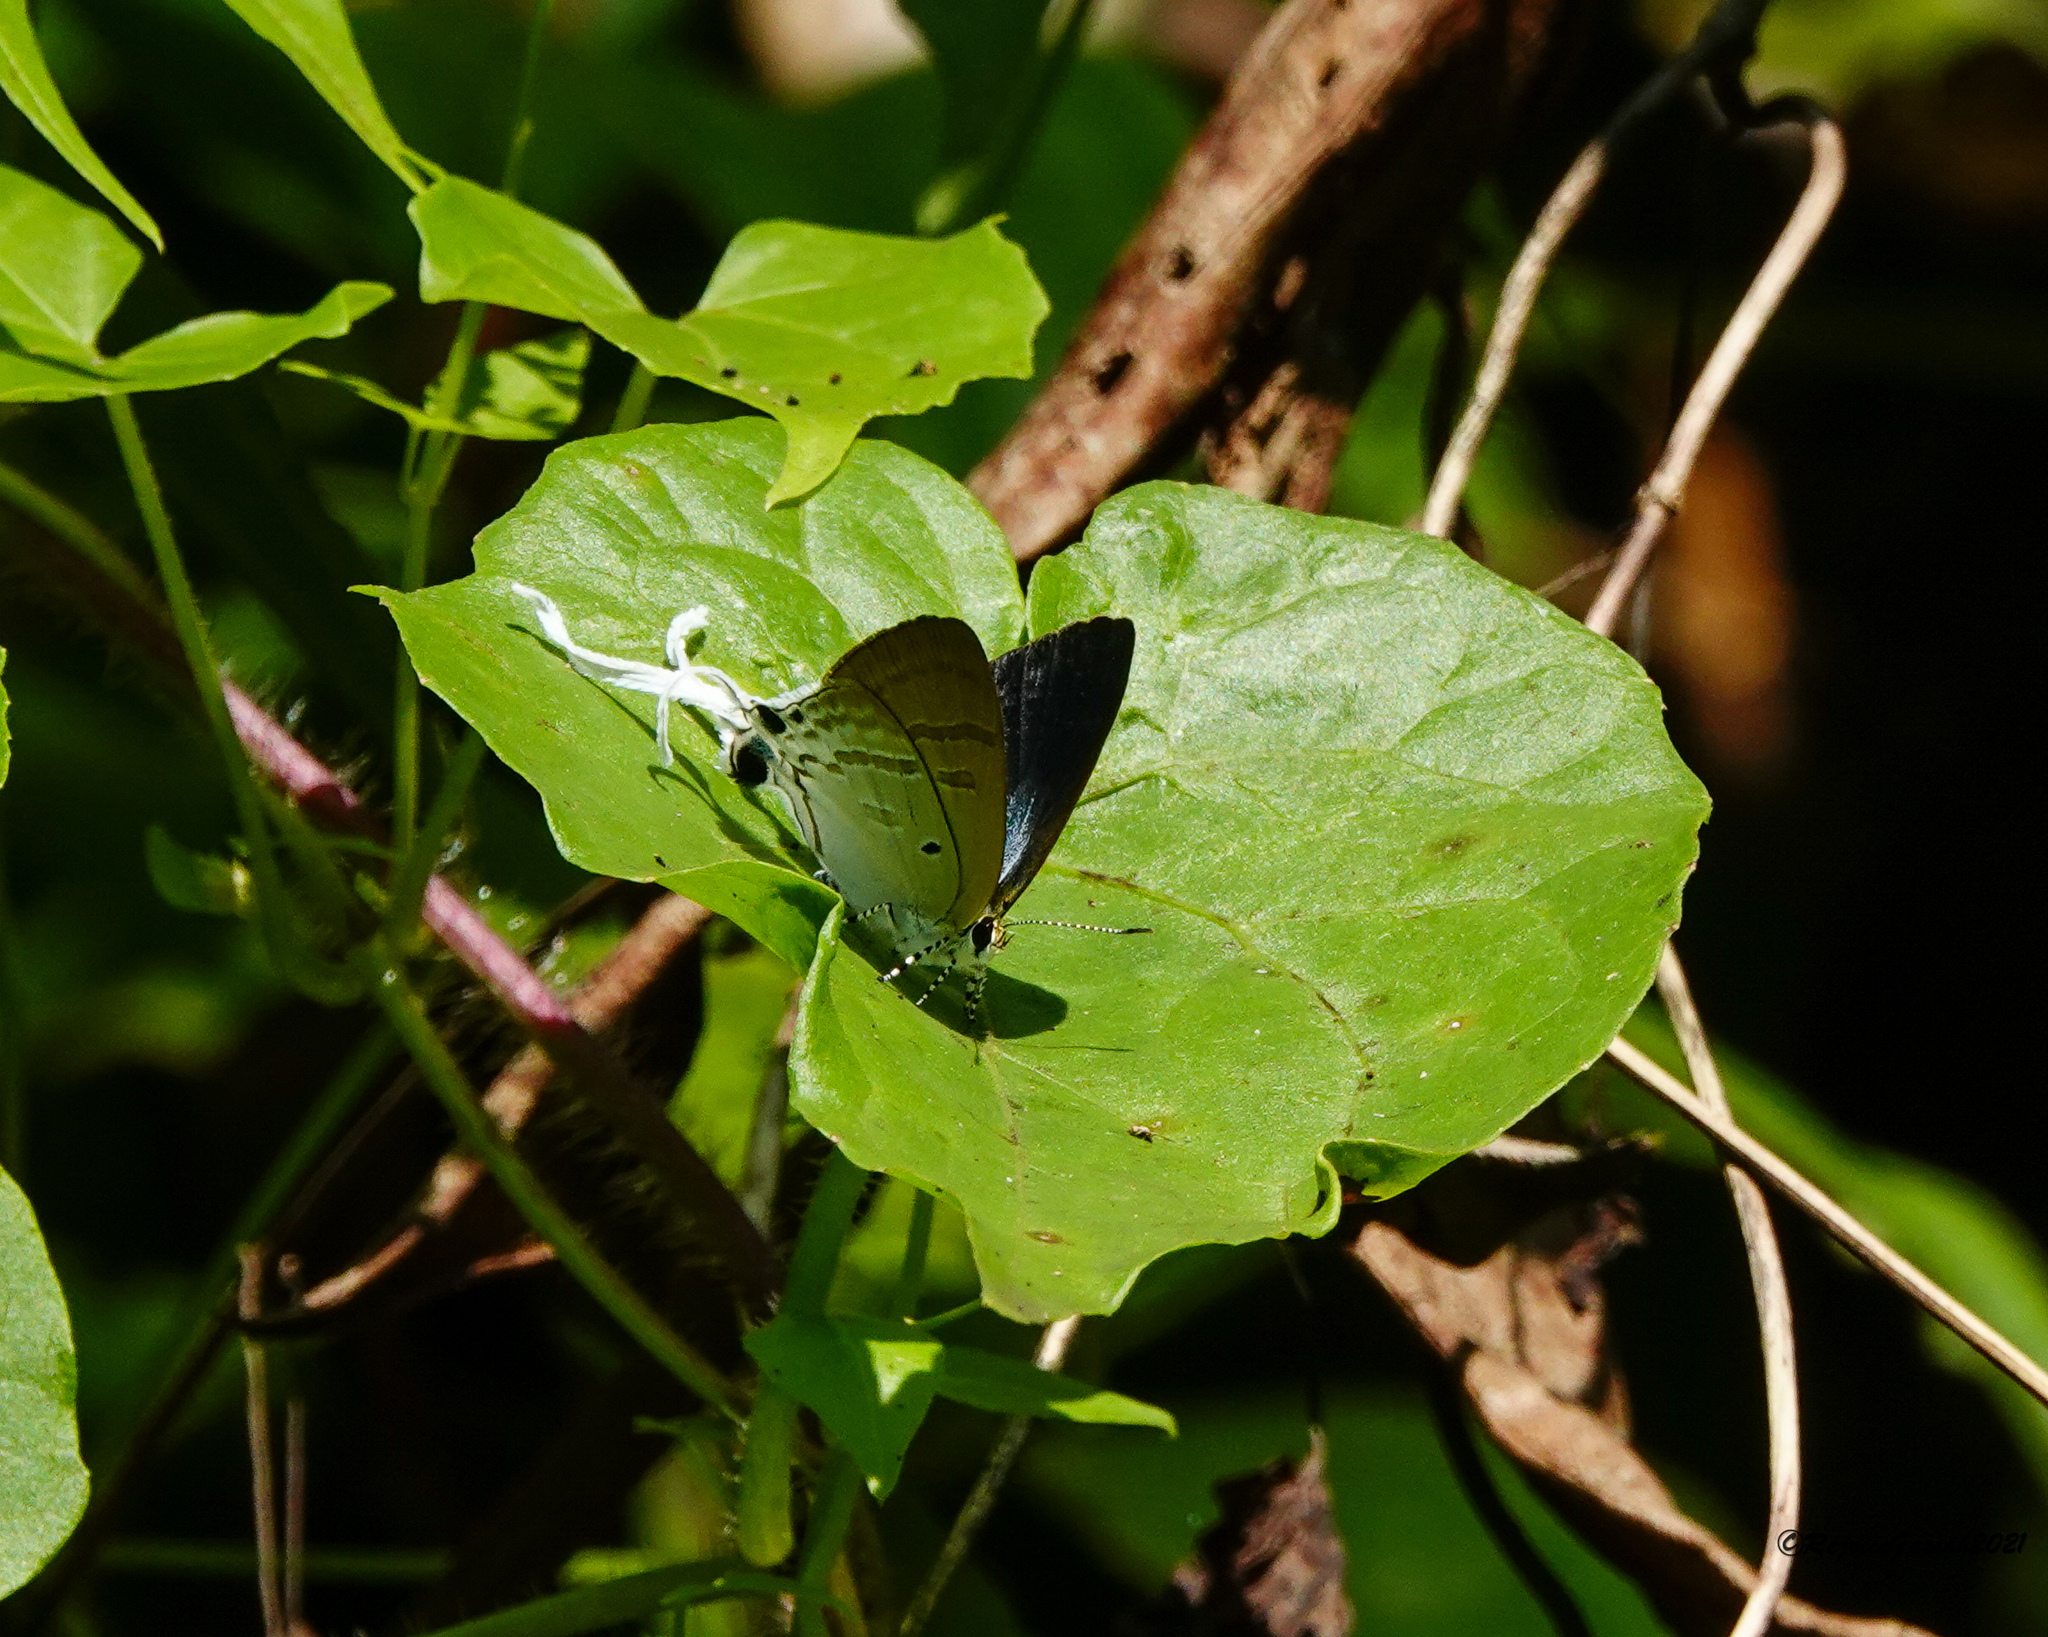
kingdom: Animalia
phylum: Arthropoda
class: Insecta
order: Lepidoptera
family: Lycaenidae
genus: Zeltus
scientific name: Zeltus amasa
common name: Fluffy tit
